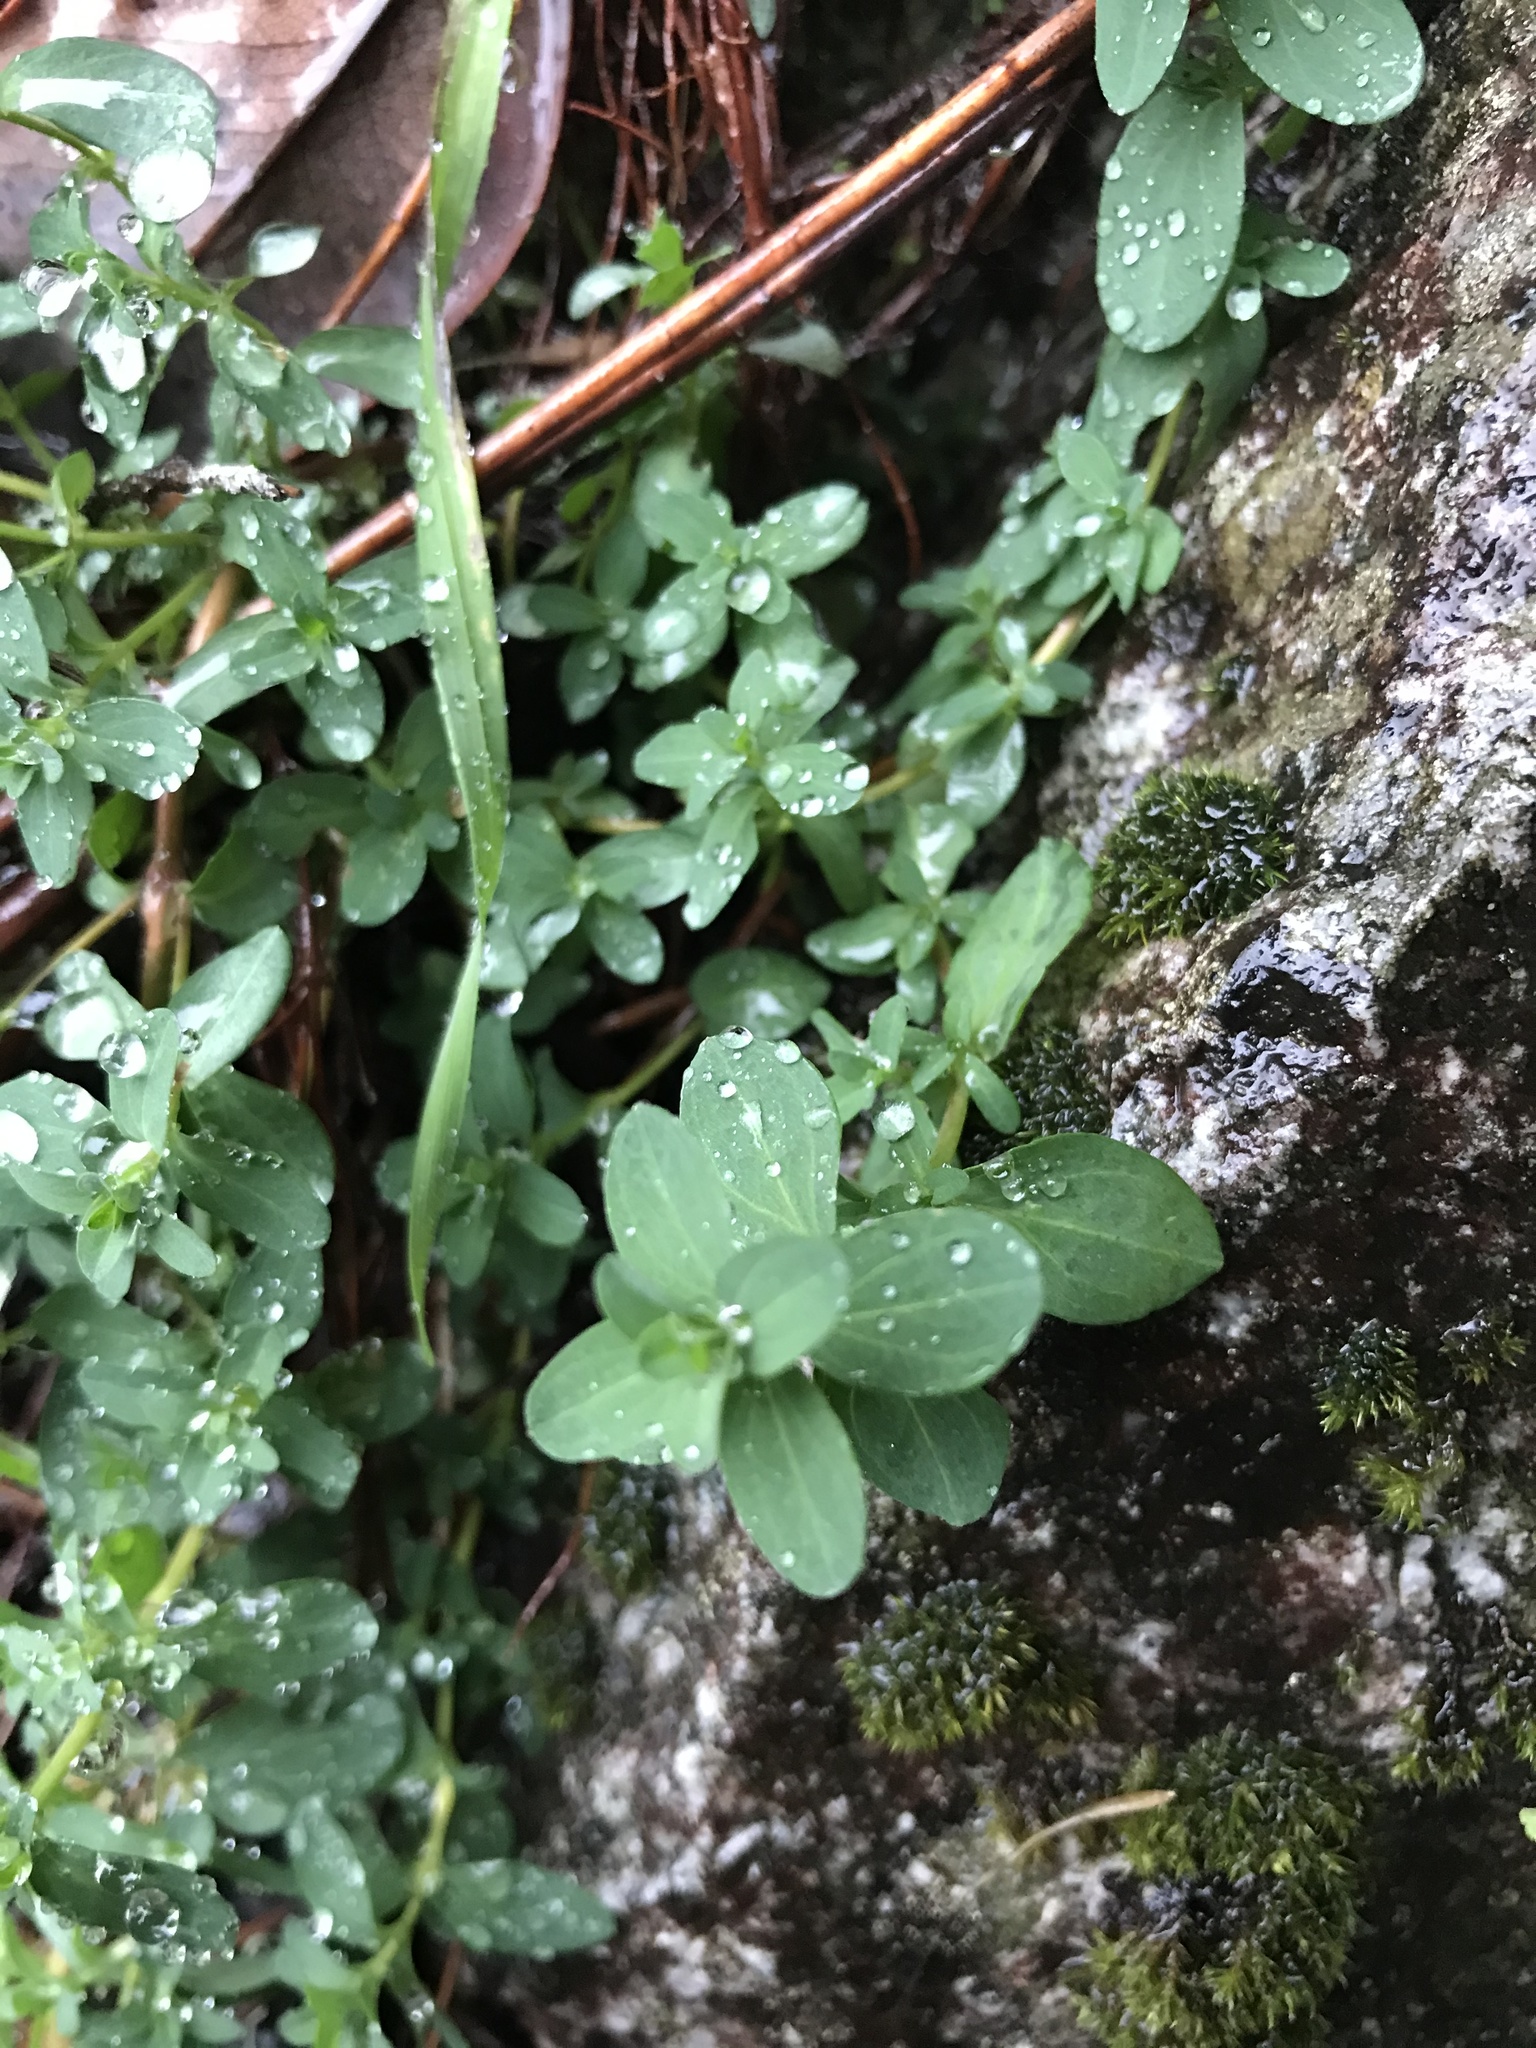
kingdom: Plantae
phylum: Tracheophyta
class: Magnoliopsida
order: Malpighiales
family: Hypericaceae
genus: Hypericum
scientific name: Hypericum perforatum
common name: Common st. johnswort
